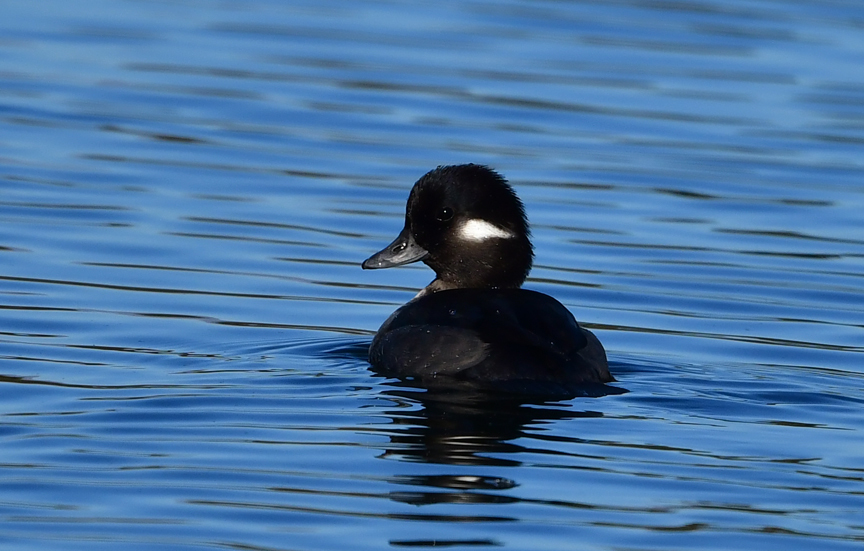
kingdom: Animalia
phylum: Chordata
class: Aves
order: Anseriformes
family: Anatidae
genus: Bucephala
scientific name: Bucephala albeola
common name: Bufflehead
